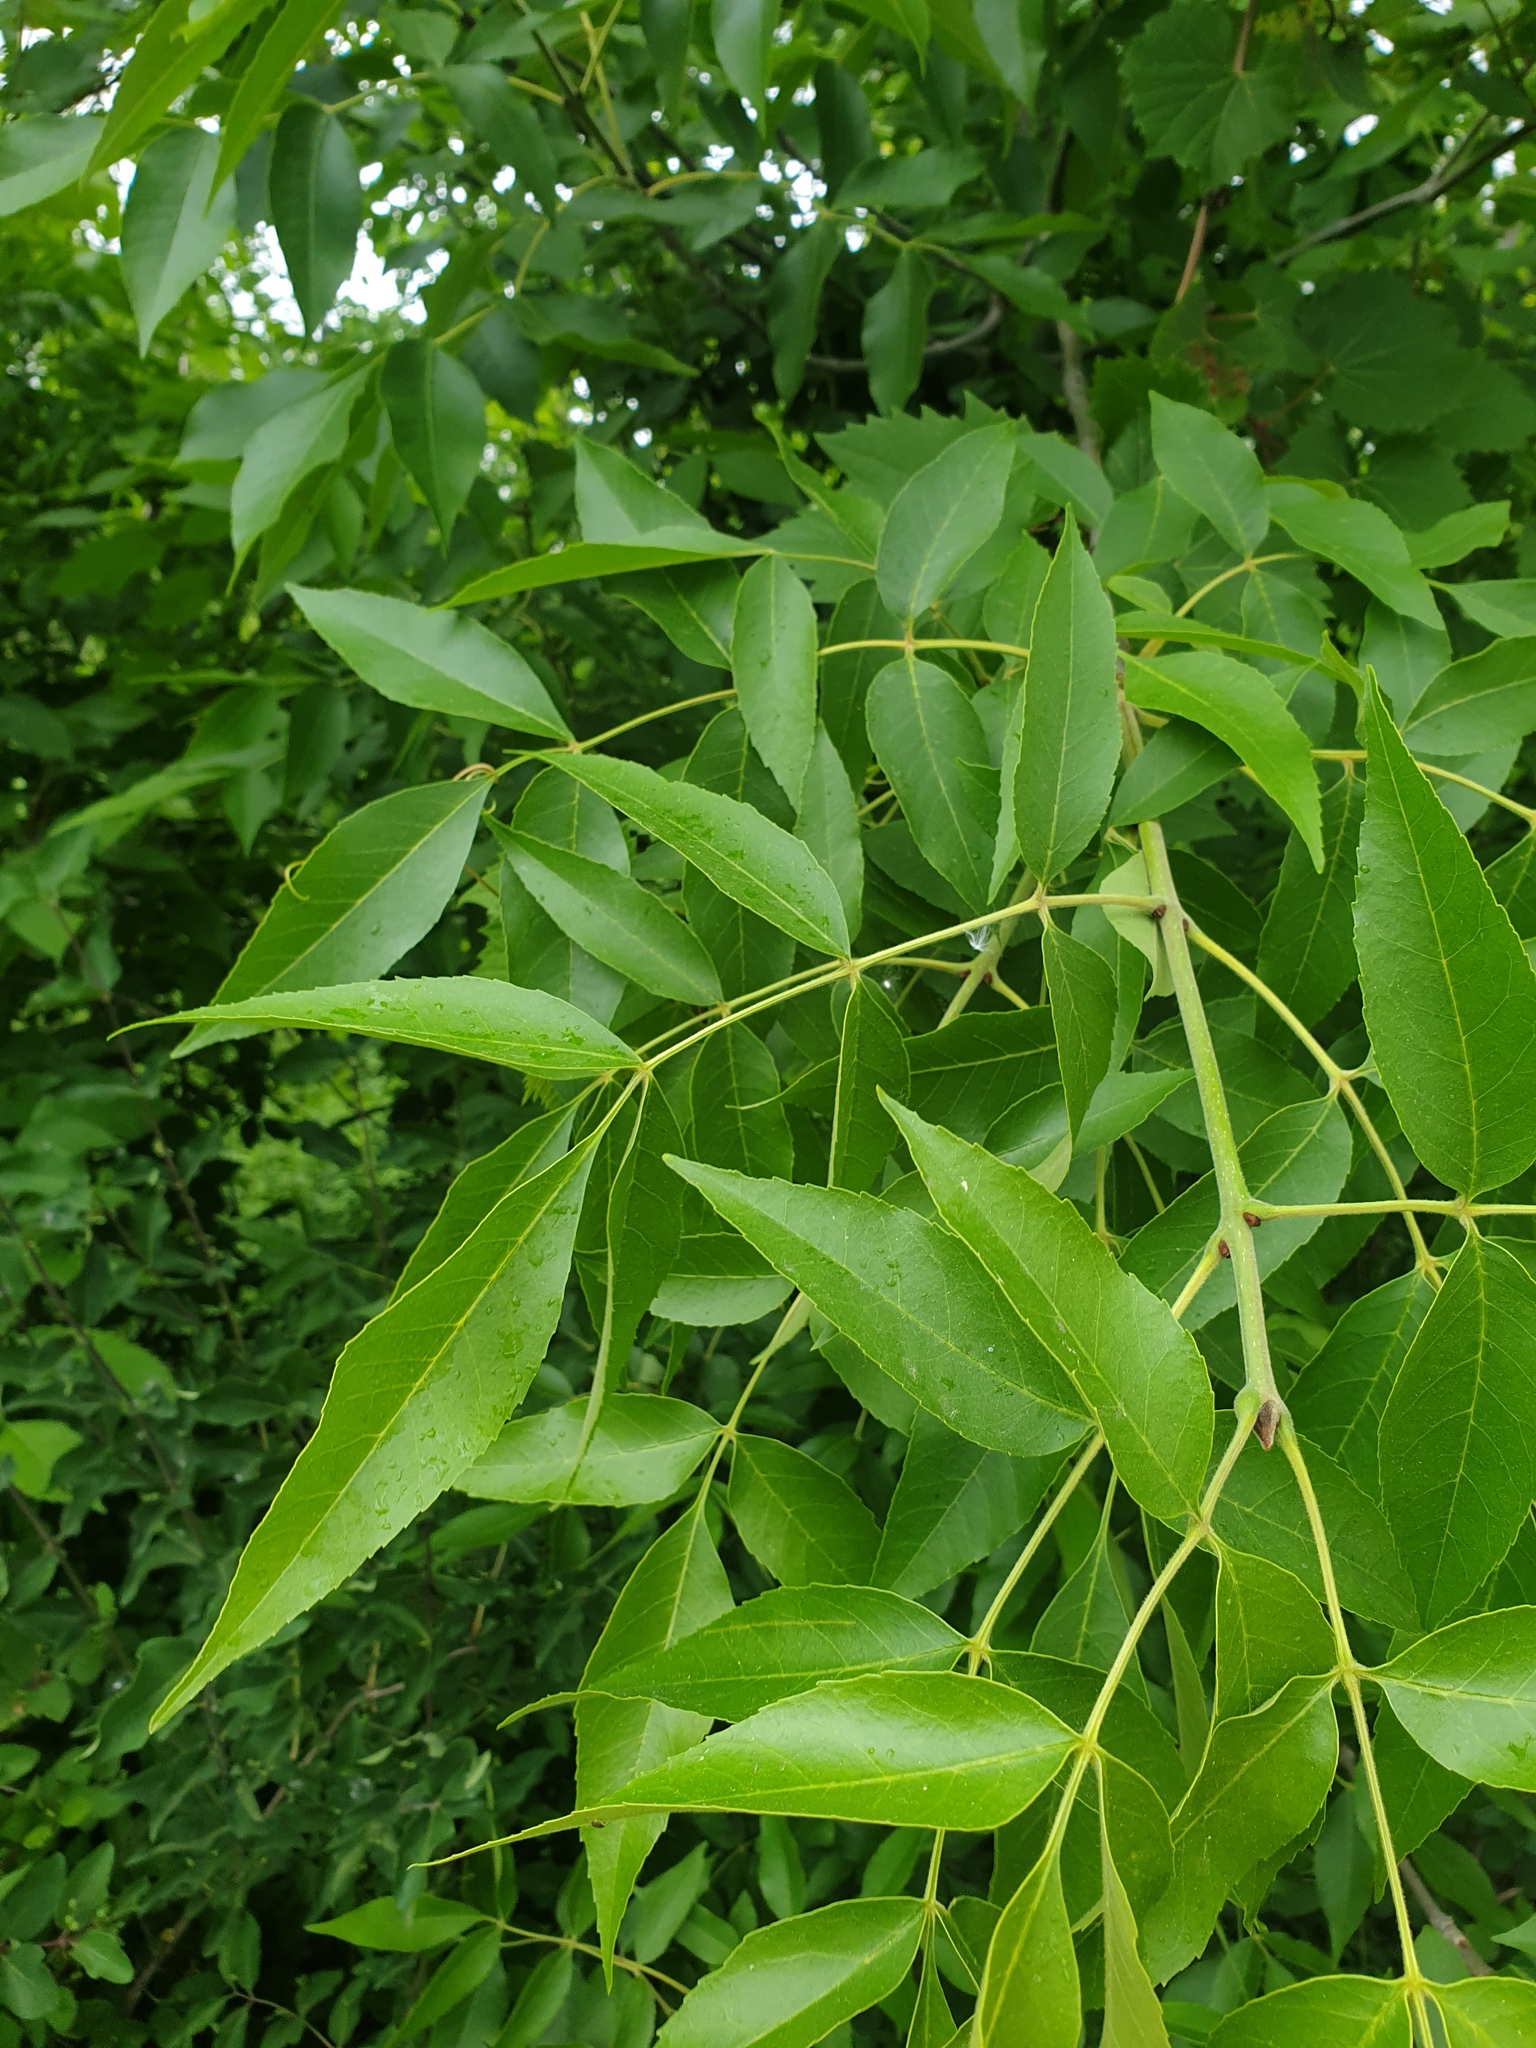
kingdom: Plantae
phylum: Tracheophyta
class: Magnoliopsida
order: Lamiales
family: Oleaceae
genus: Fraxinus
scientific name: Fraxinus pennsylvanica
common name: Green ash
